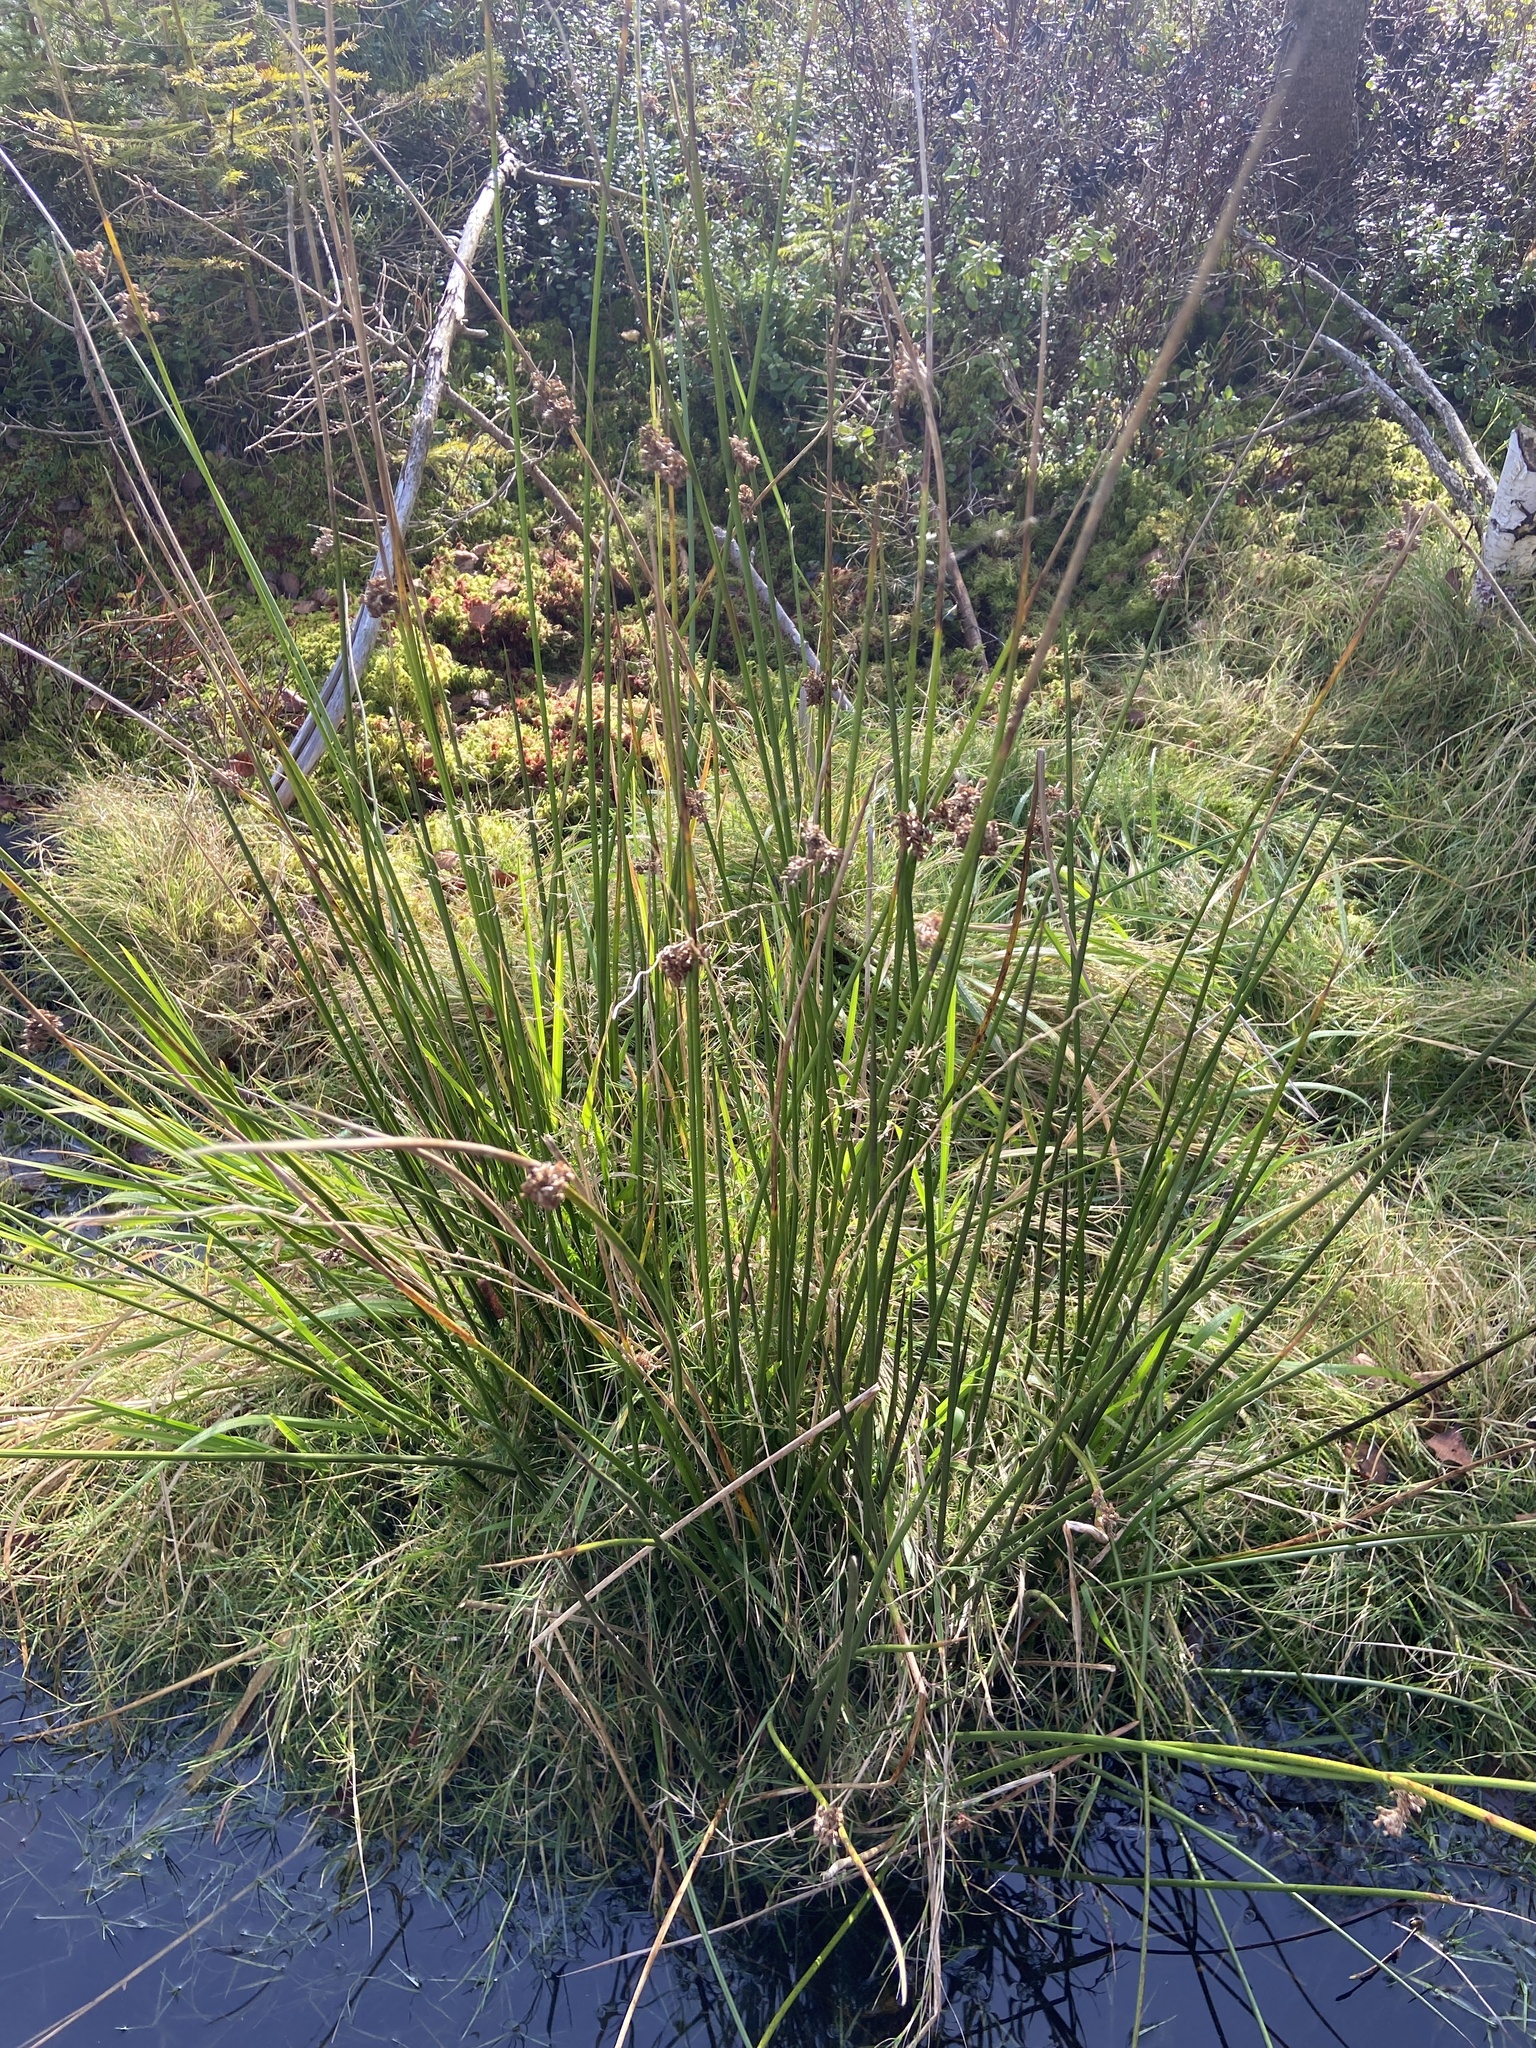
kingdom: Plantae
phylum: Tracheophyta
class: Liliopsida
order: Poales
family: Juncaceae
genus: Juncus
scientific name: Juncus effusus
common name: Soft rush
